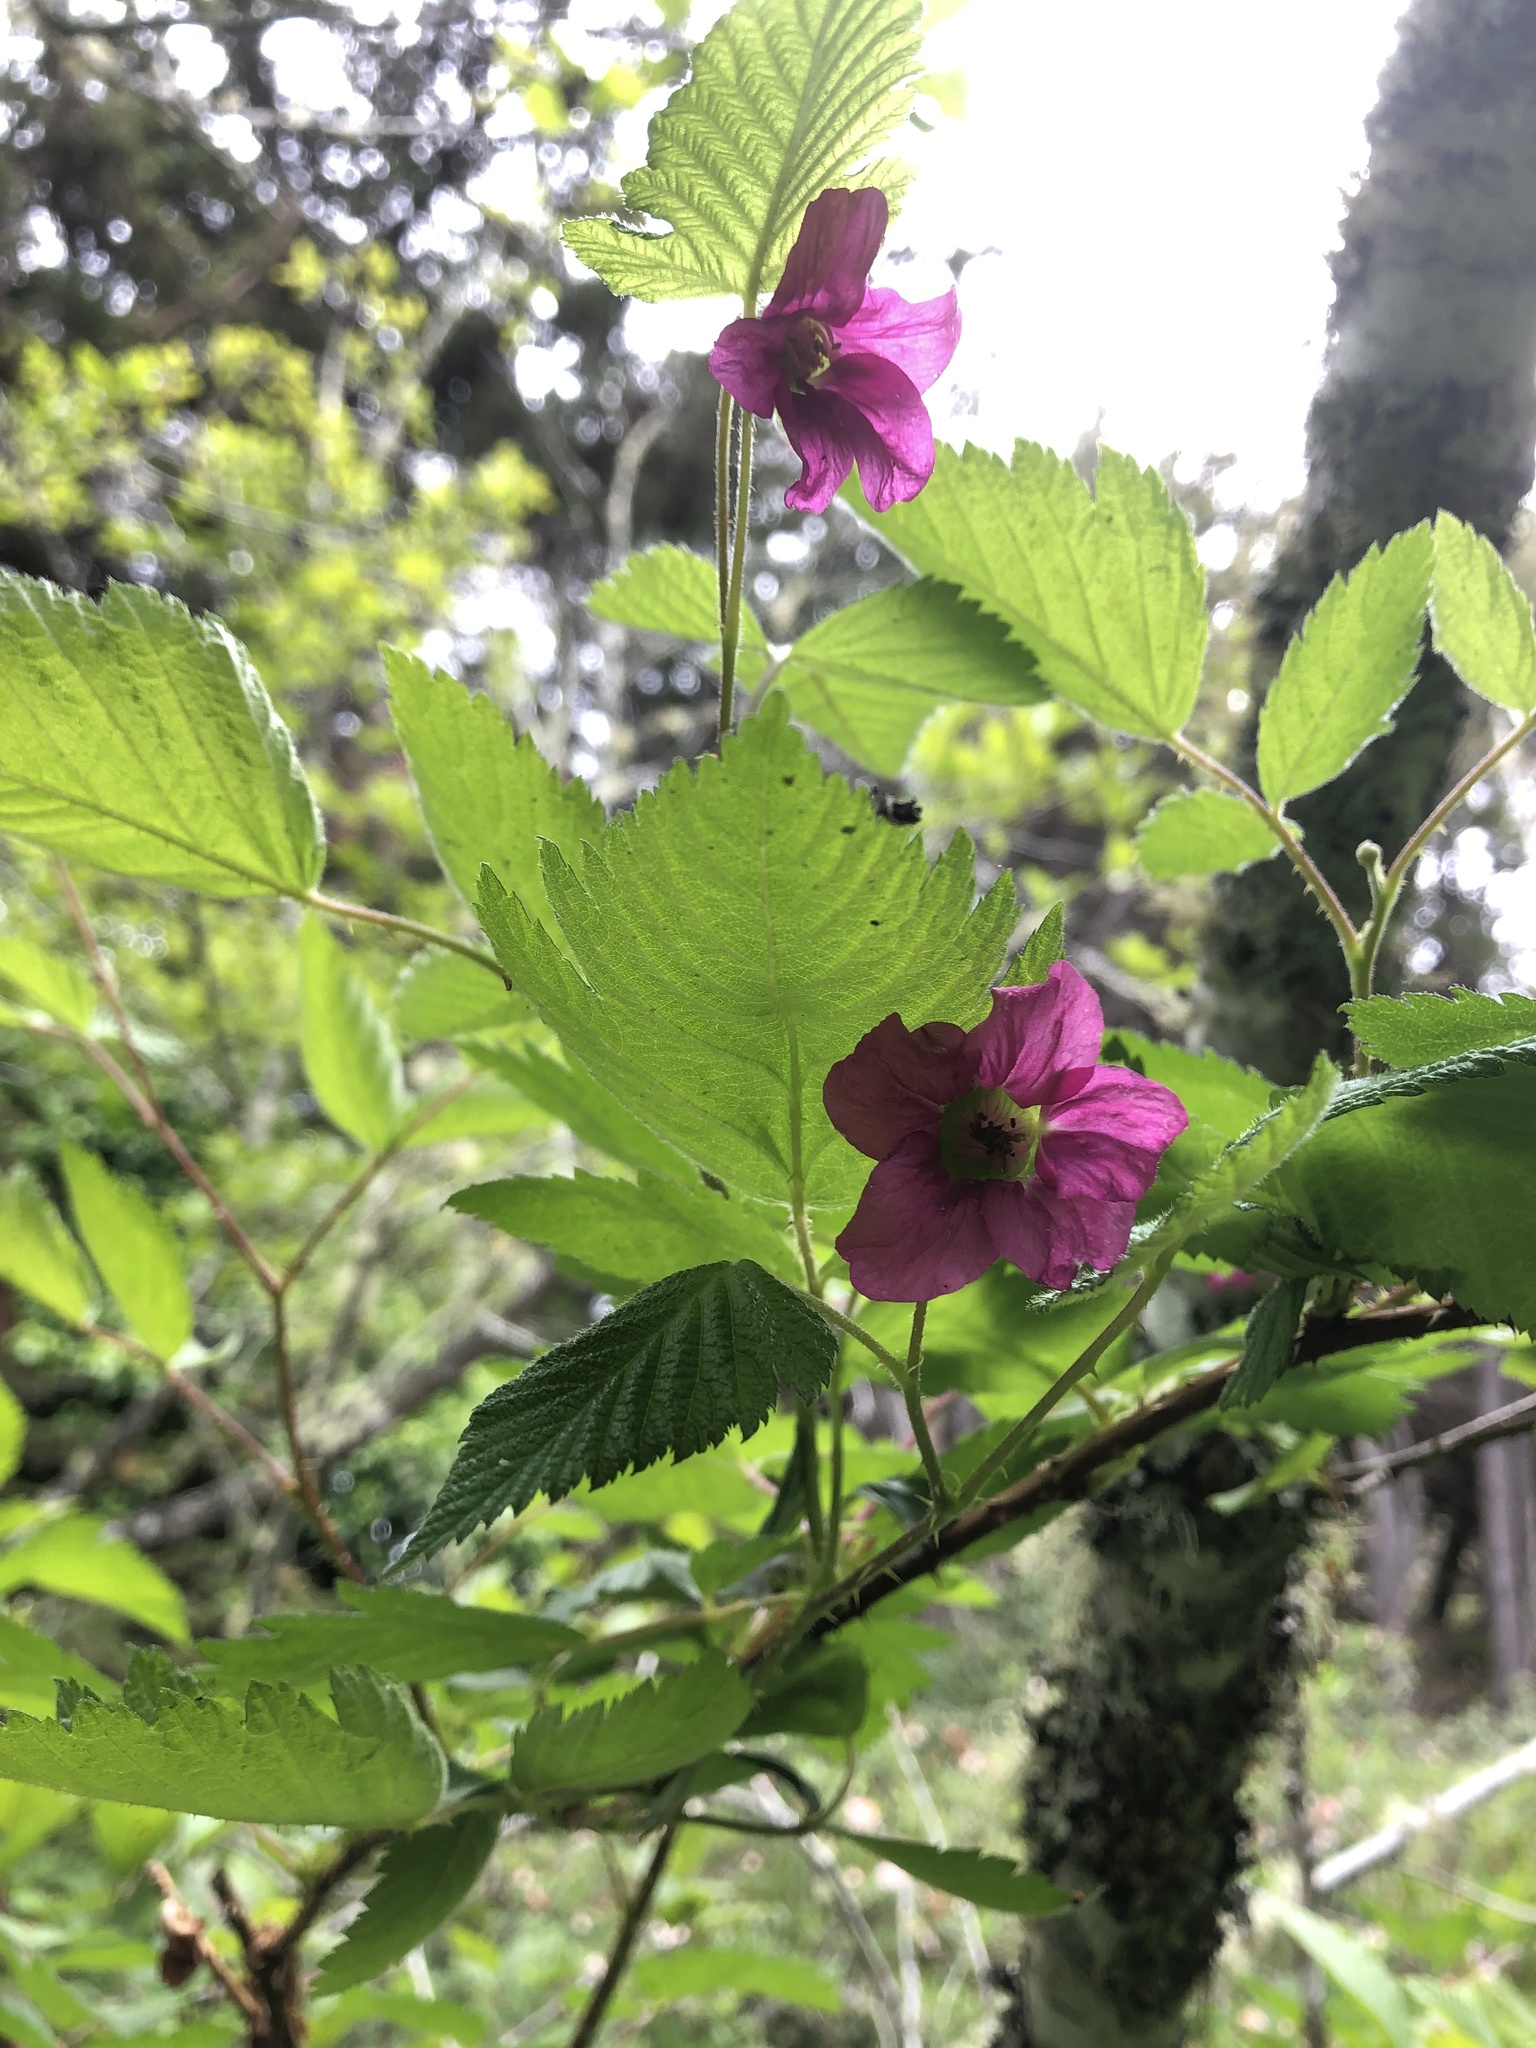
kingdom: Plantae
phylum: Tracheophyta
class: Magnoliopsida
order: Rosales
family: Rosaceae
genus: Rubus
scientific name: Rubus spectabilis
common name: Salmonberry
